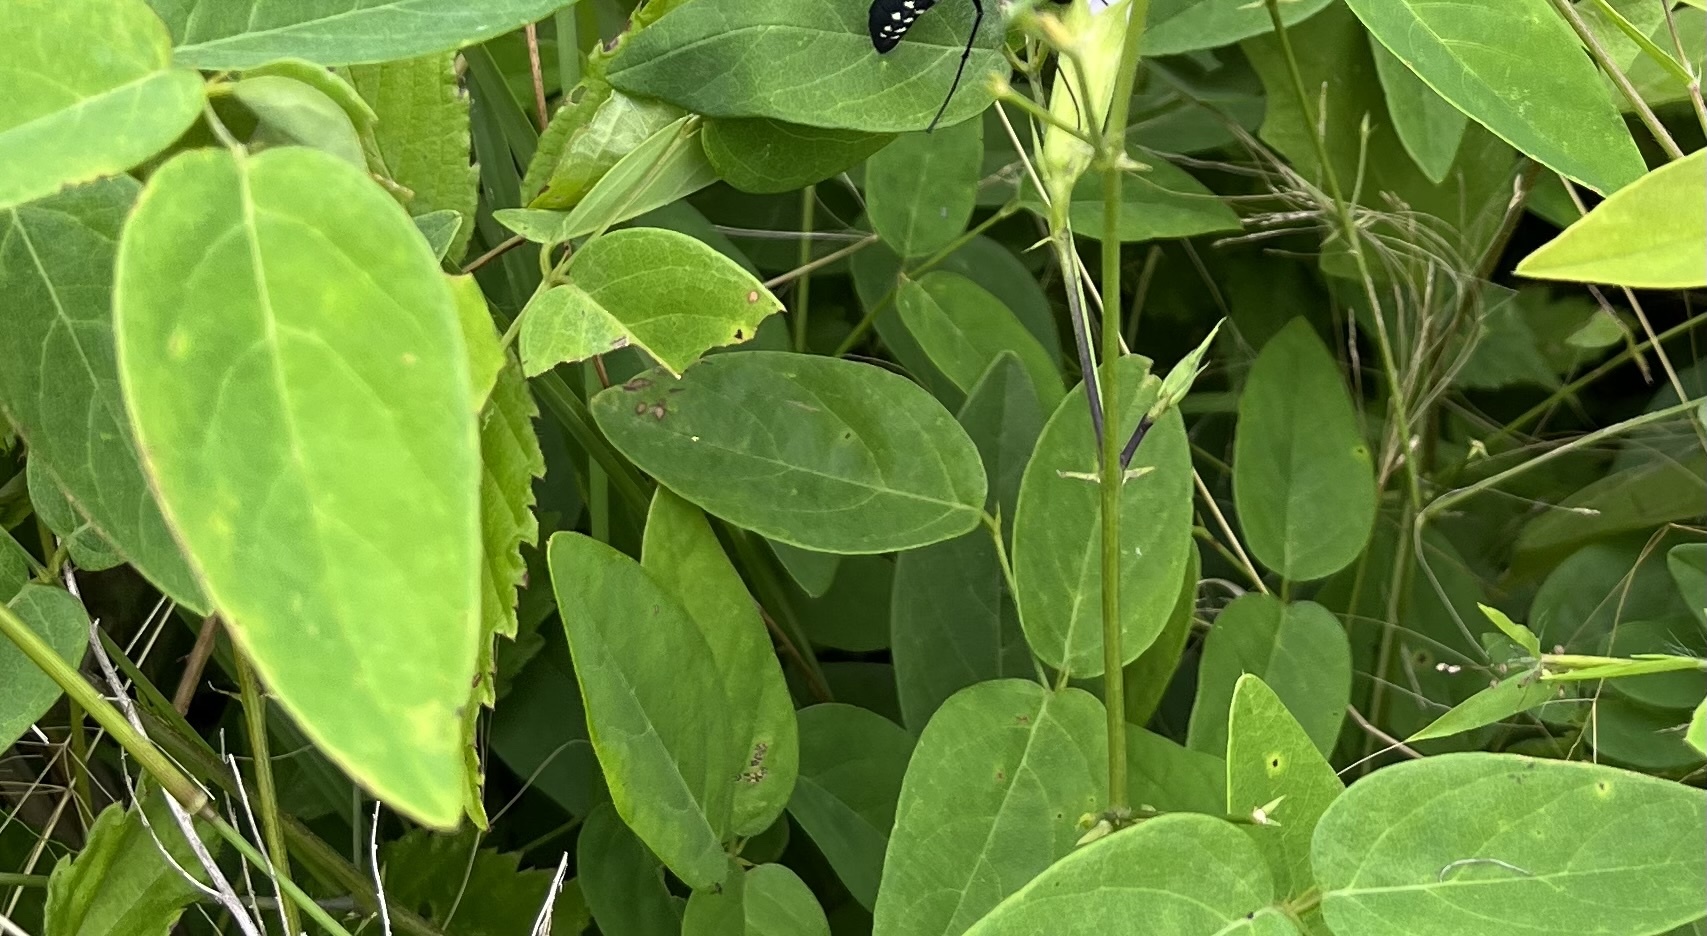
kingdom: Plantae
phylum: Tracheophyta
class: Magnoliopsida
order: Fabales
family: Fabaceae
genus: Clitoria
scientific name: Clitoria mariana
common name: Butterfly-pea
